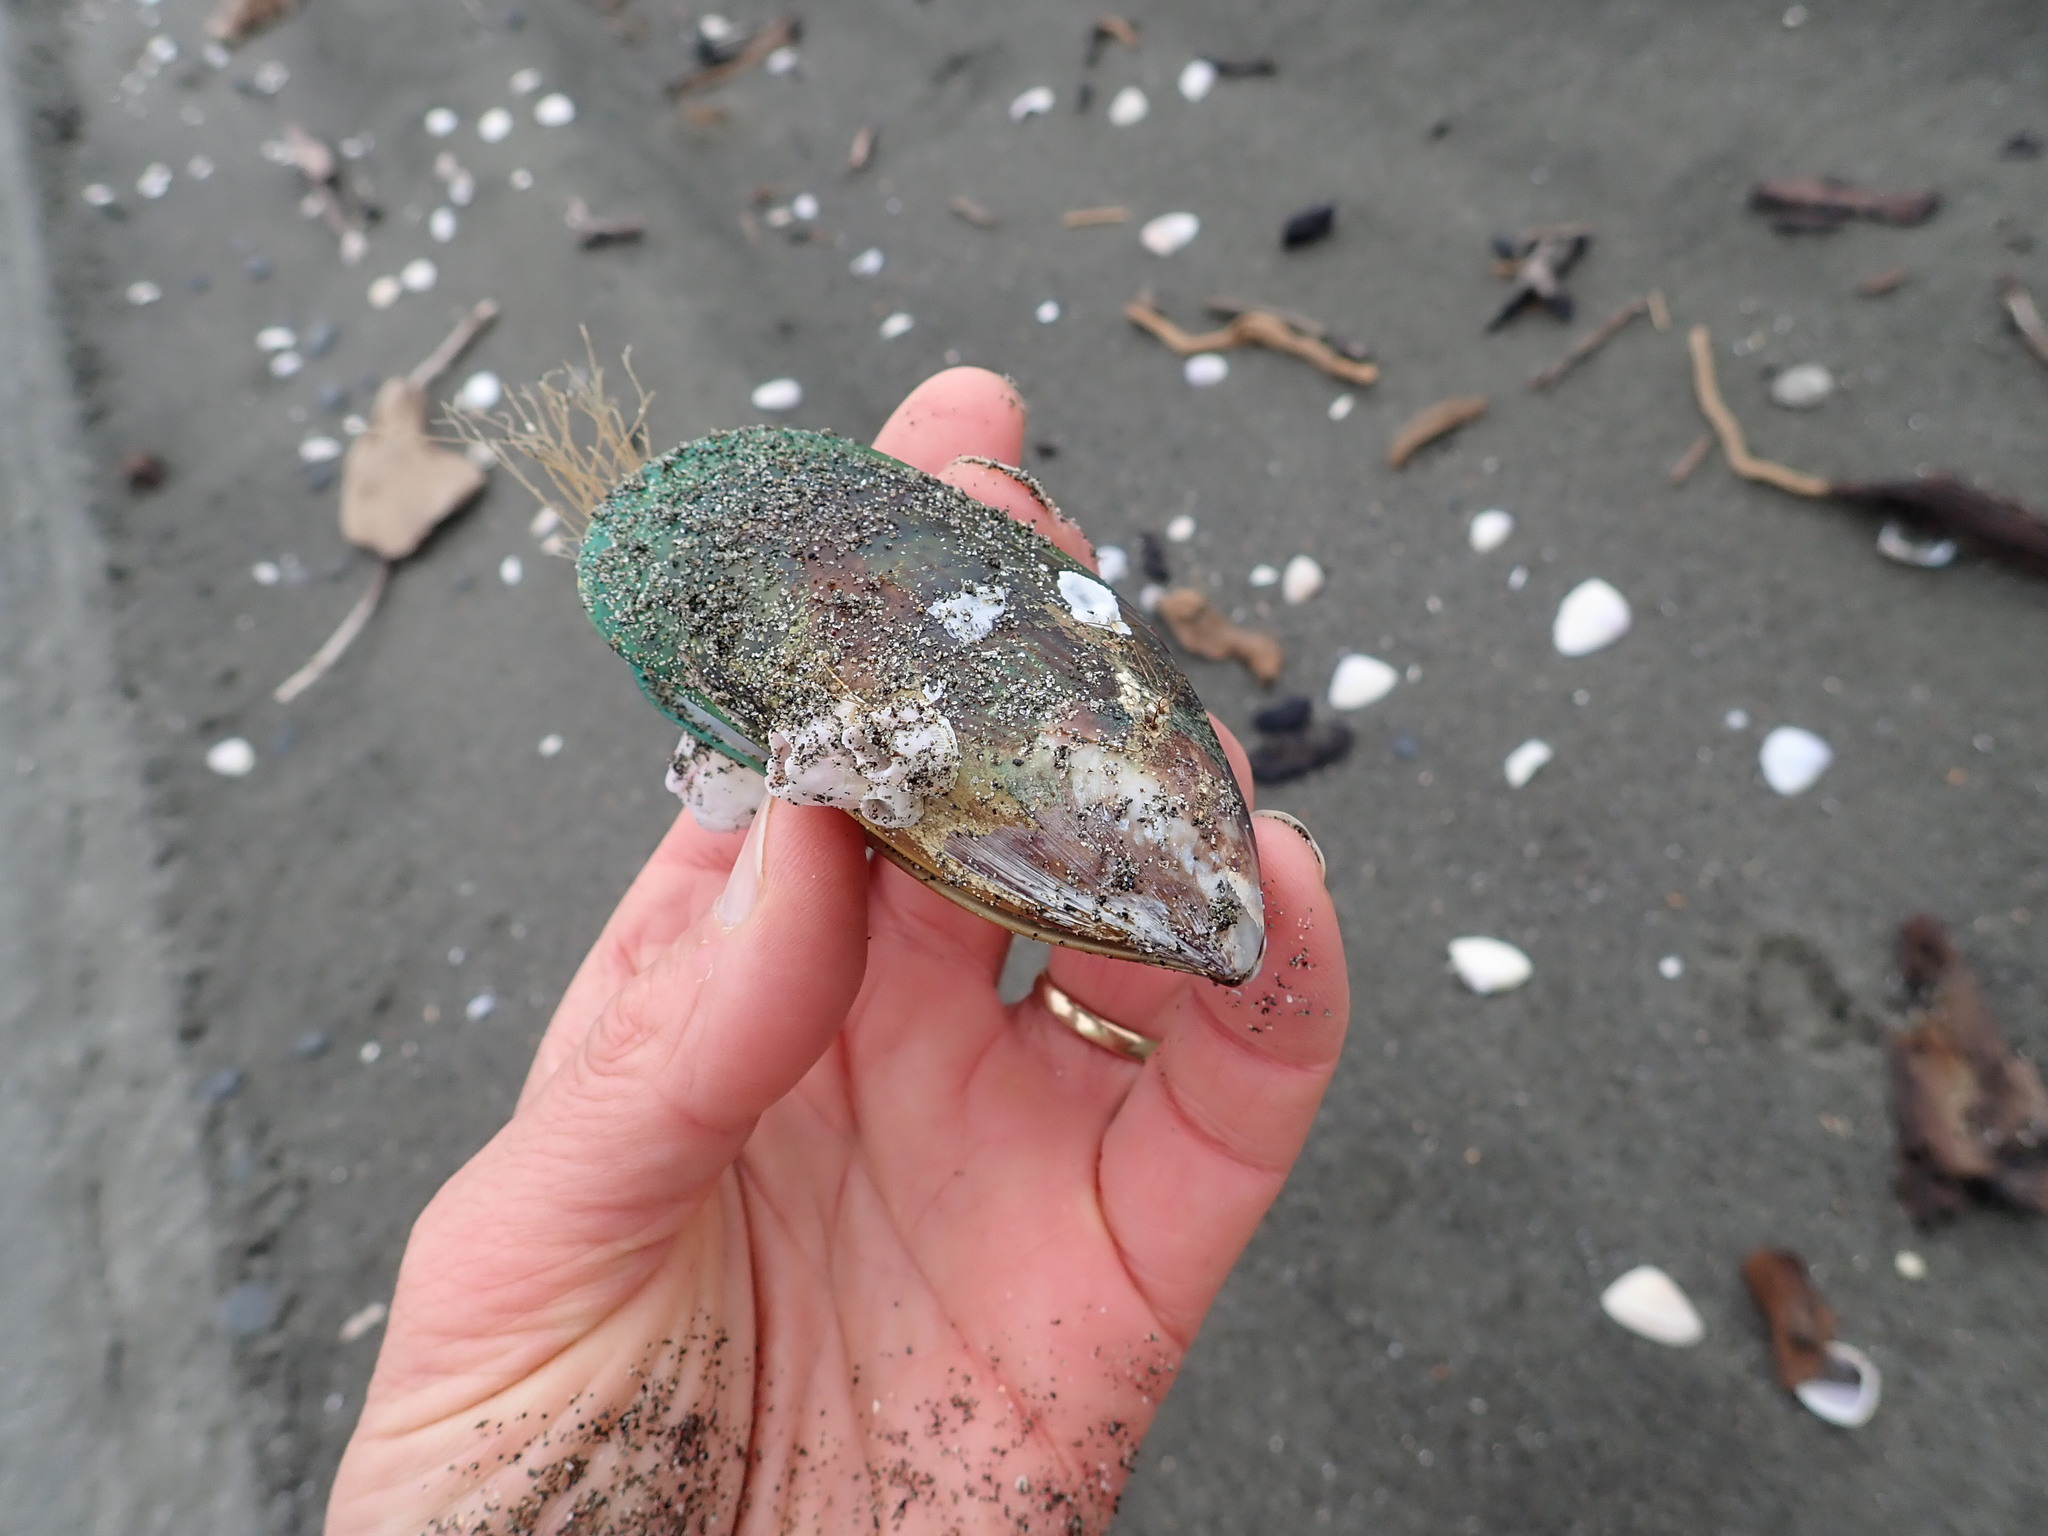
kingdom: Animalia
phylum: Arthropoda
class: Maxillopoda
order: Sessilia
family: Balanidae
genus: Notomegabalanus
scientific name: Notomegabalanus decorus
